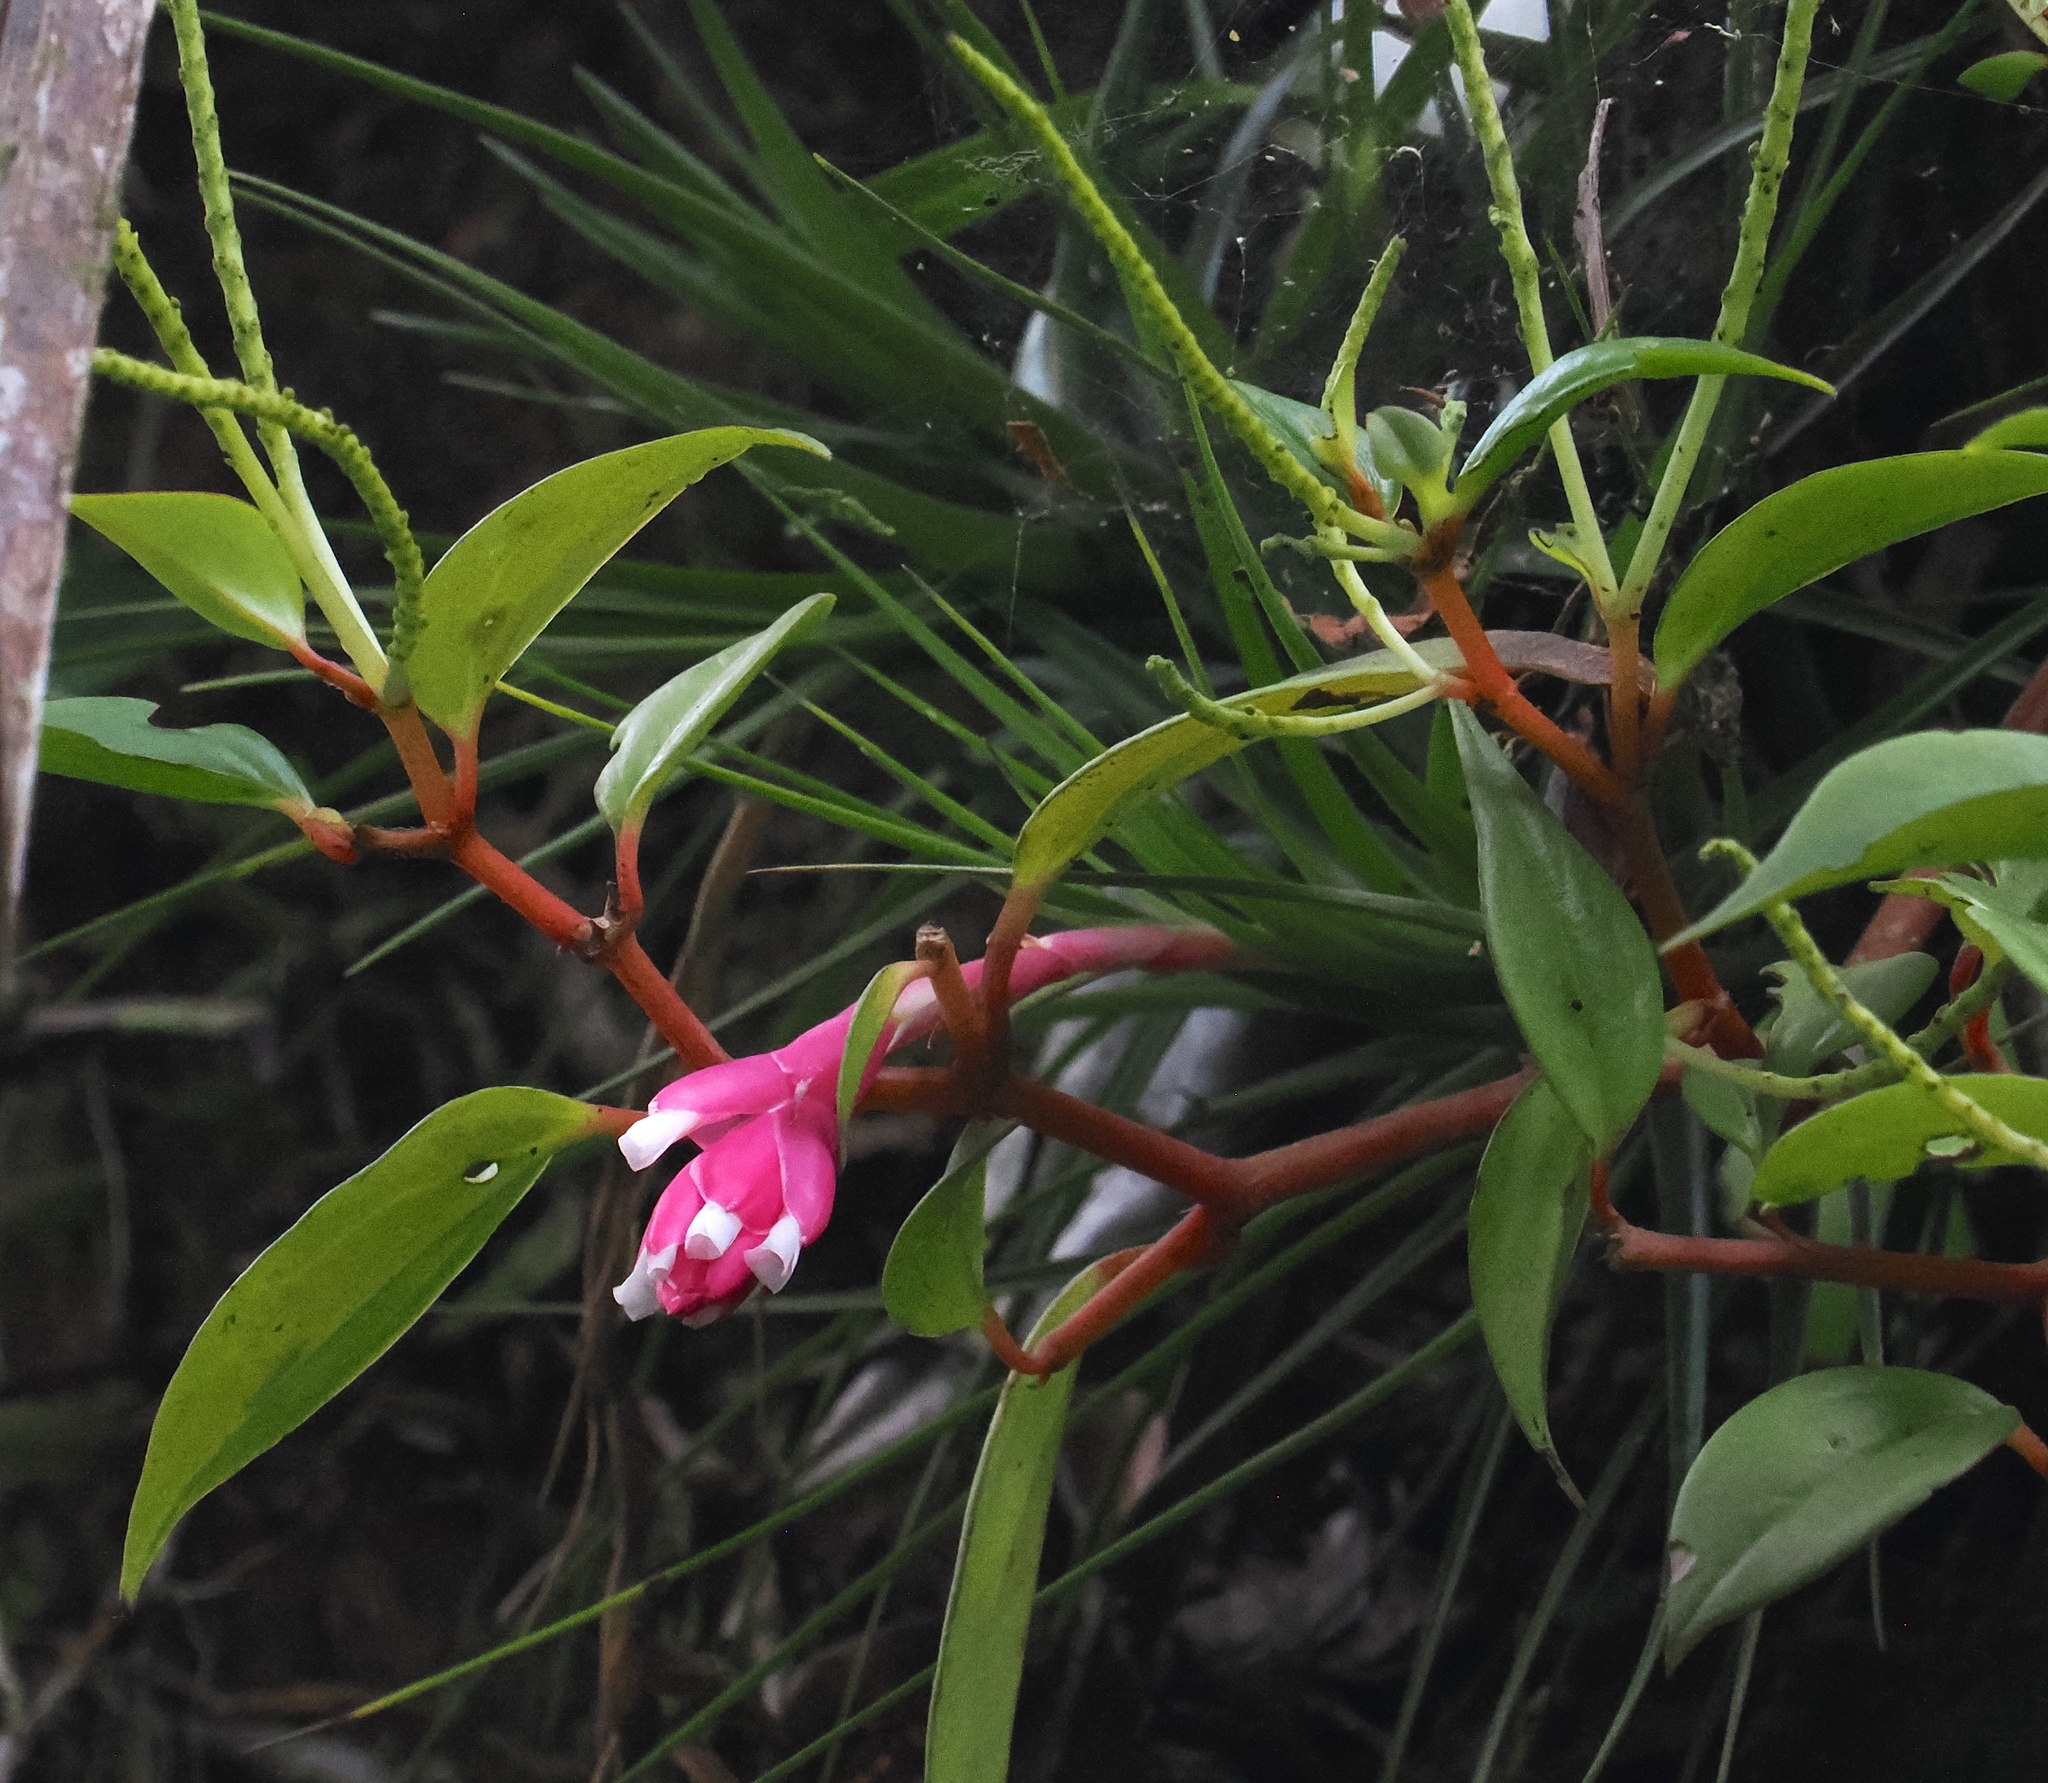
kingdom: Plantae
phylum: Tracheophyta
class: Liliopsida
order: Poales
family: Bromeliaceae
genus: Tillandsia
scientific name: Tillandsia tenuifolia
